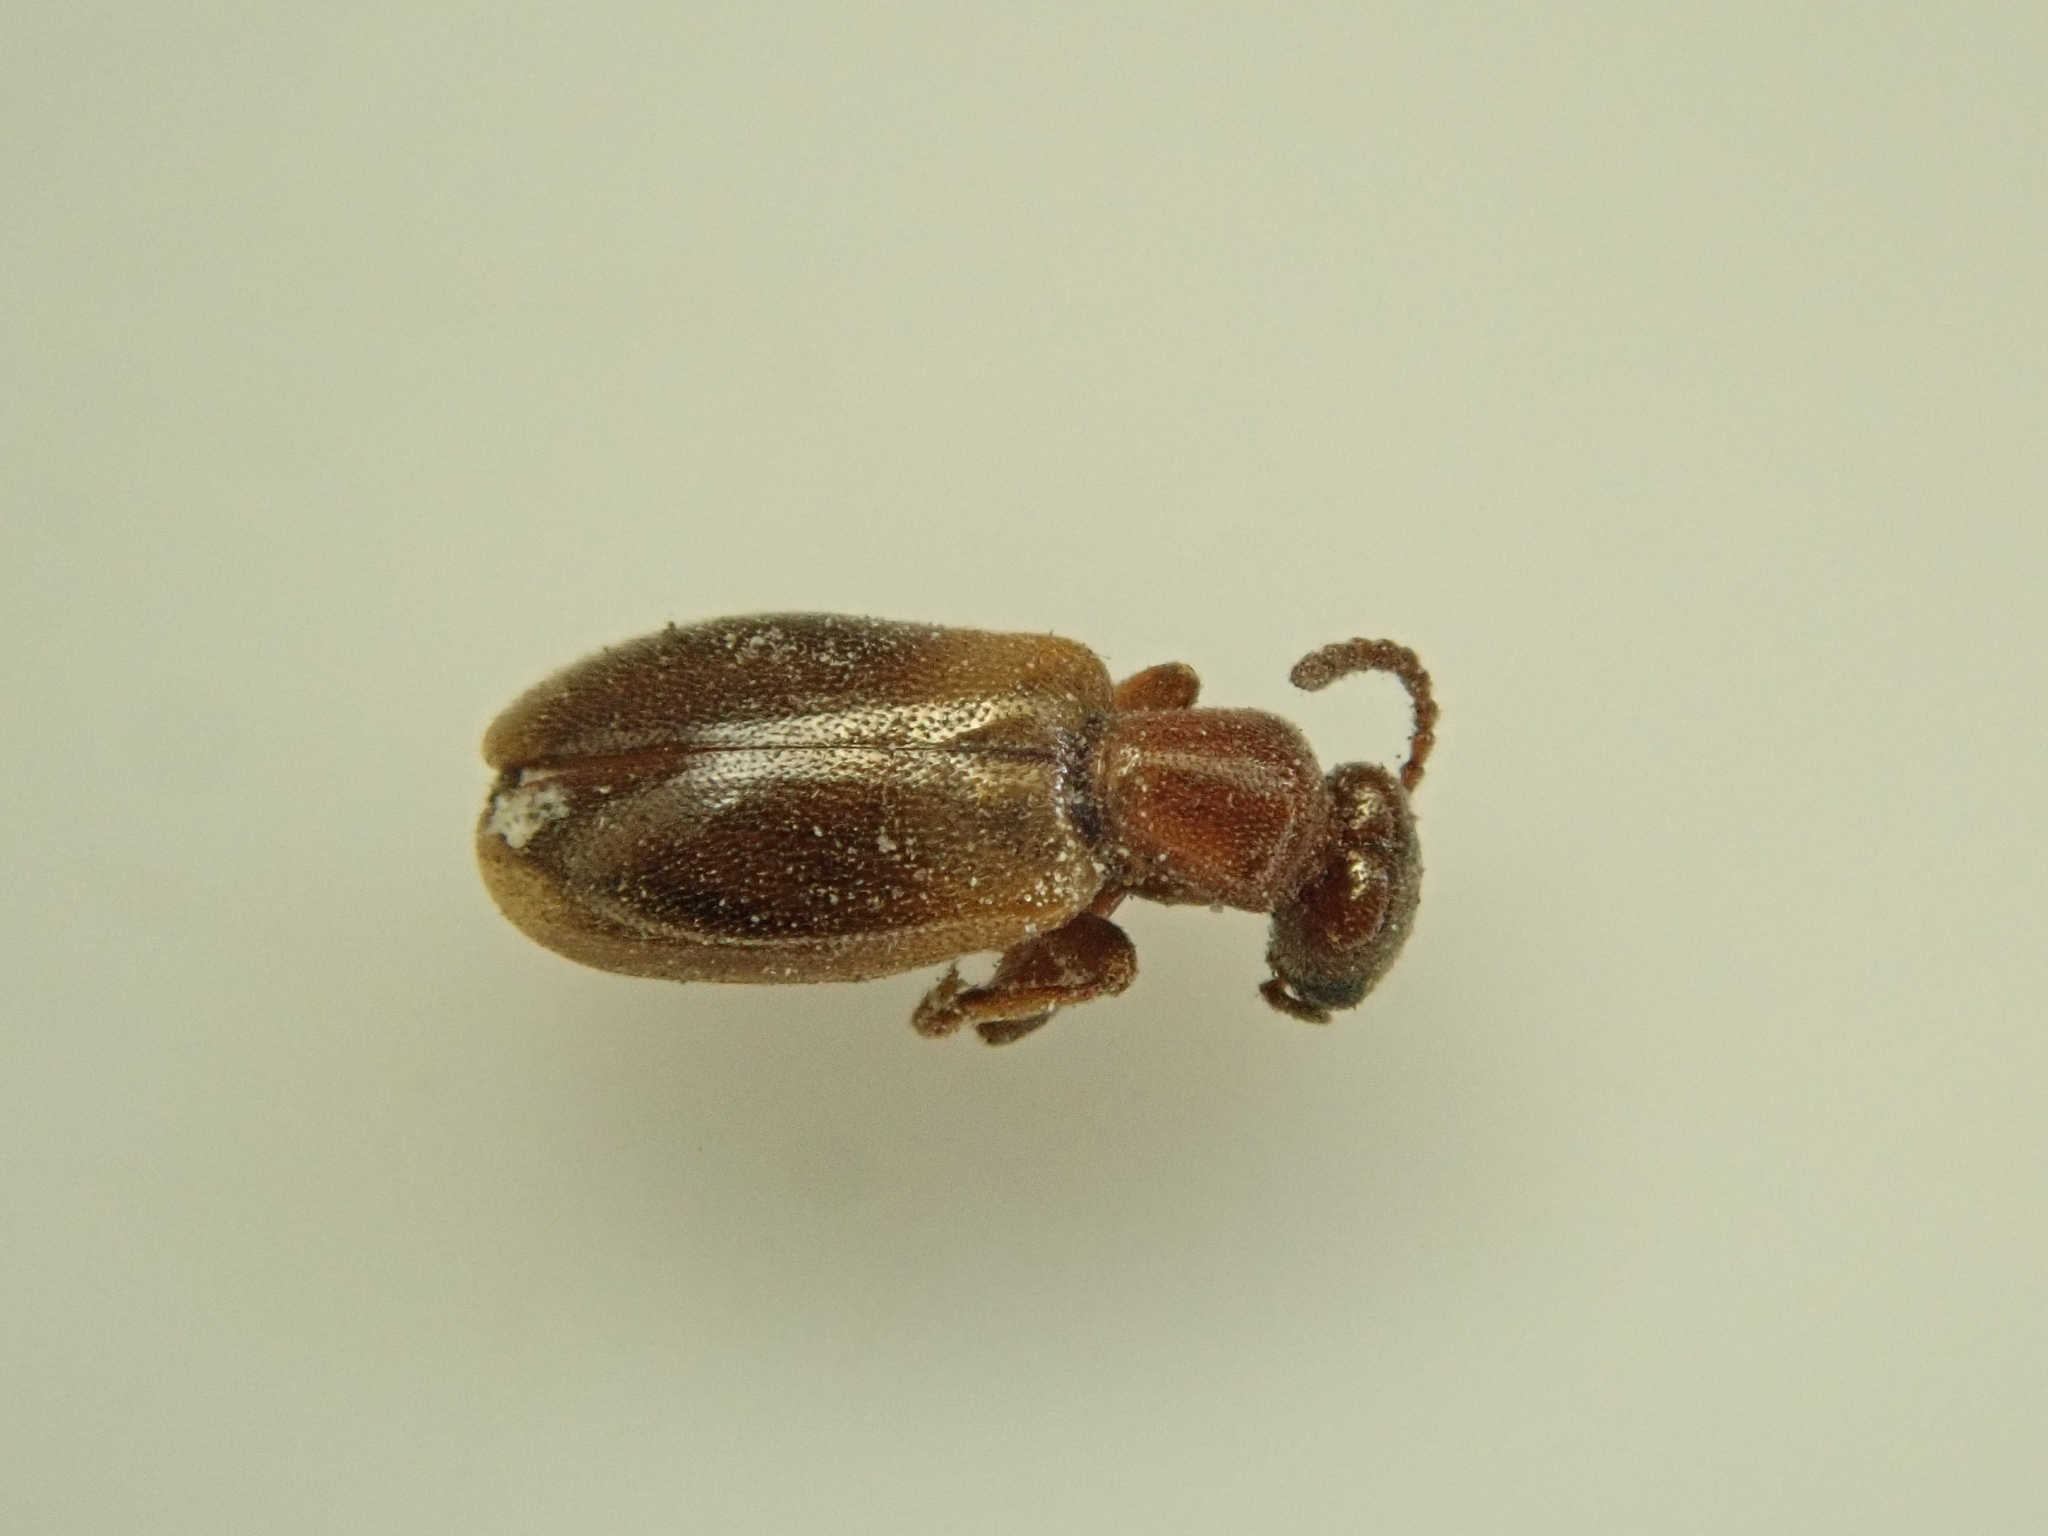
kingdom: Animalia
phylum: Arthropoda
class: Insecta
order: Coleoptera
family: Anthicidae
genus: Omonadus
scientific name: Omonadus floralis
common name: Narrownecked grain beetle
